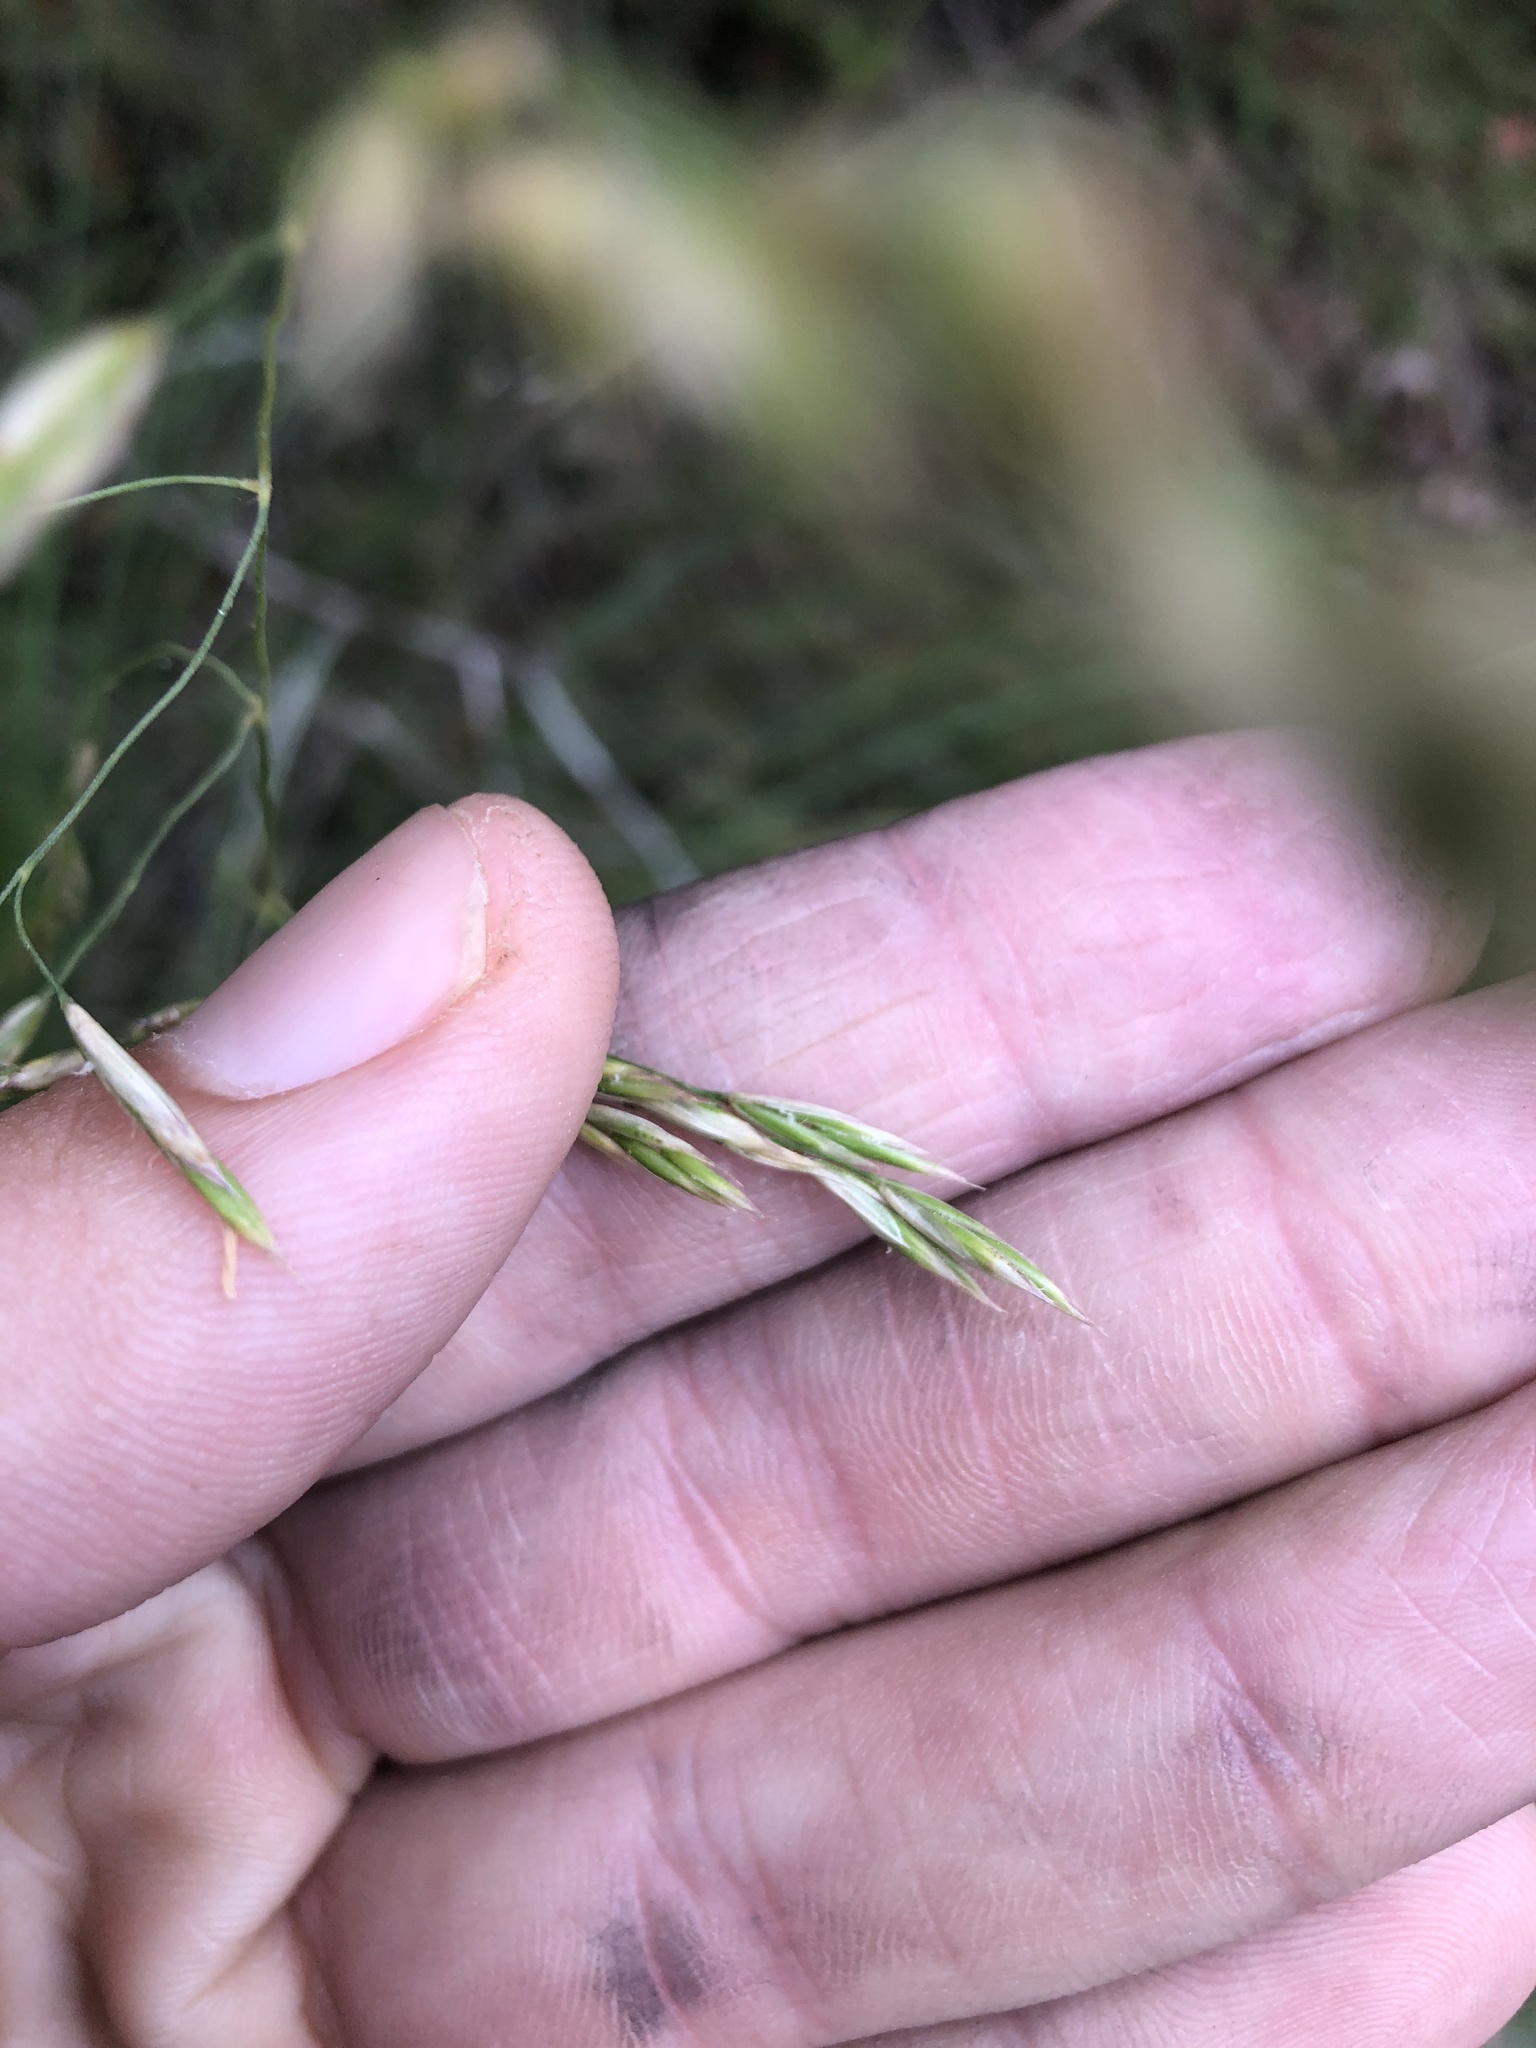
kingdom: Plantae
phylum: Tracheophyta
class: Liliopsida
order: Poales
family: Poaceae
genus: Festuca
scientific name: Festuca californica
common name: California fescue
